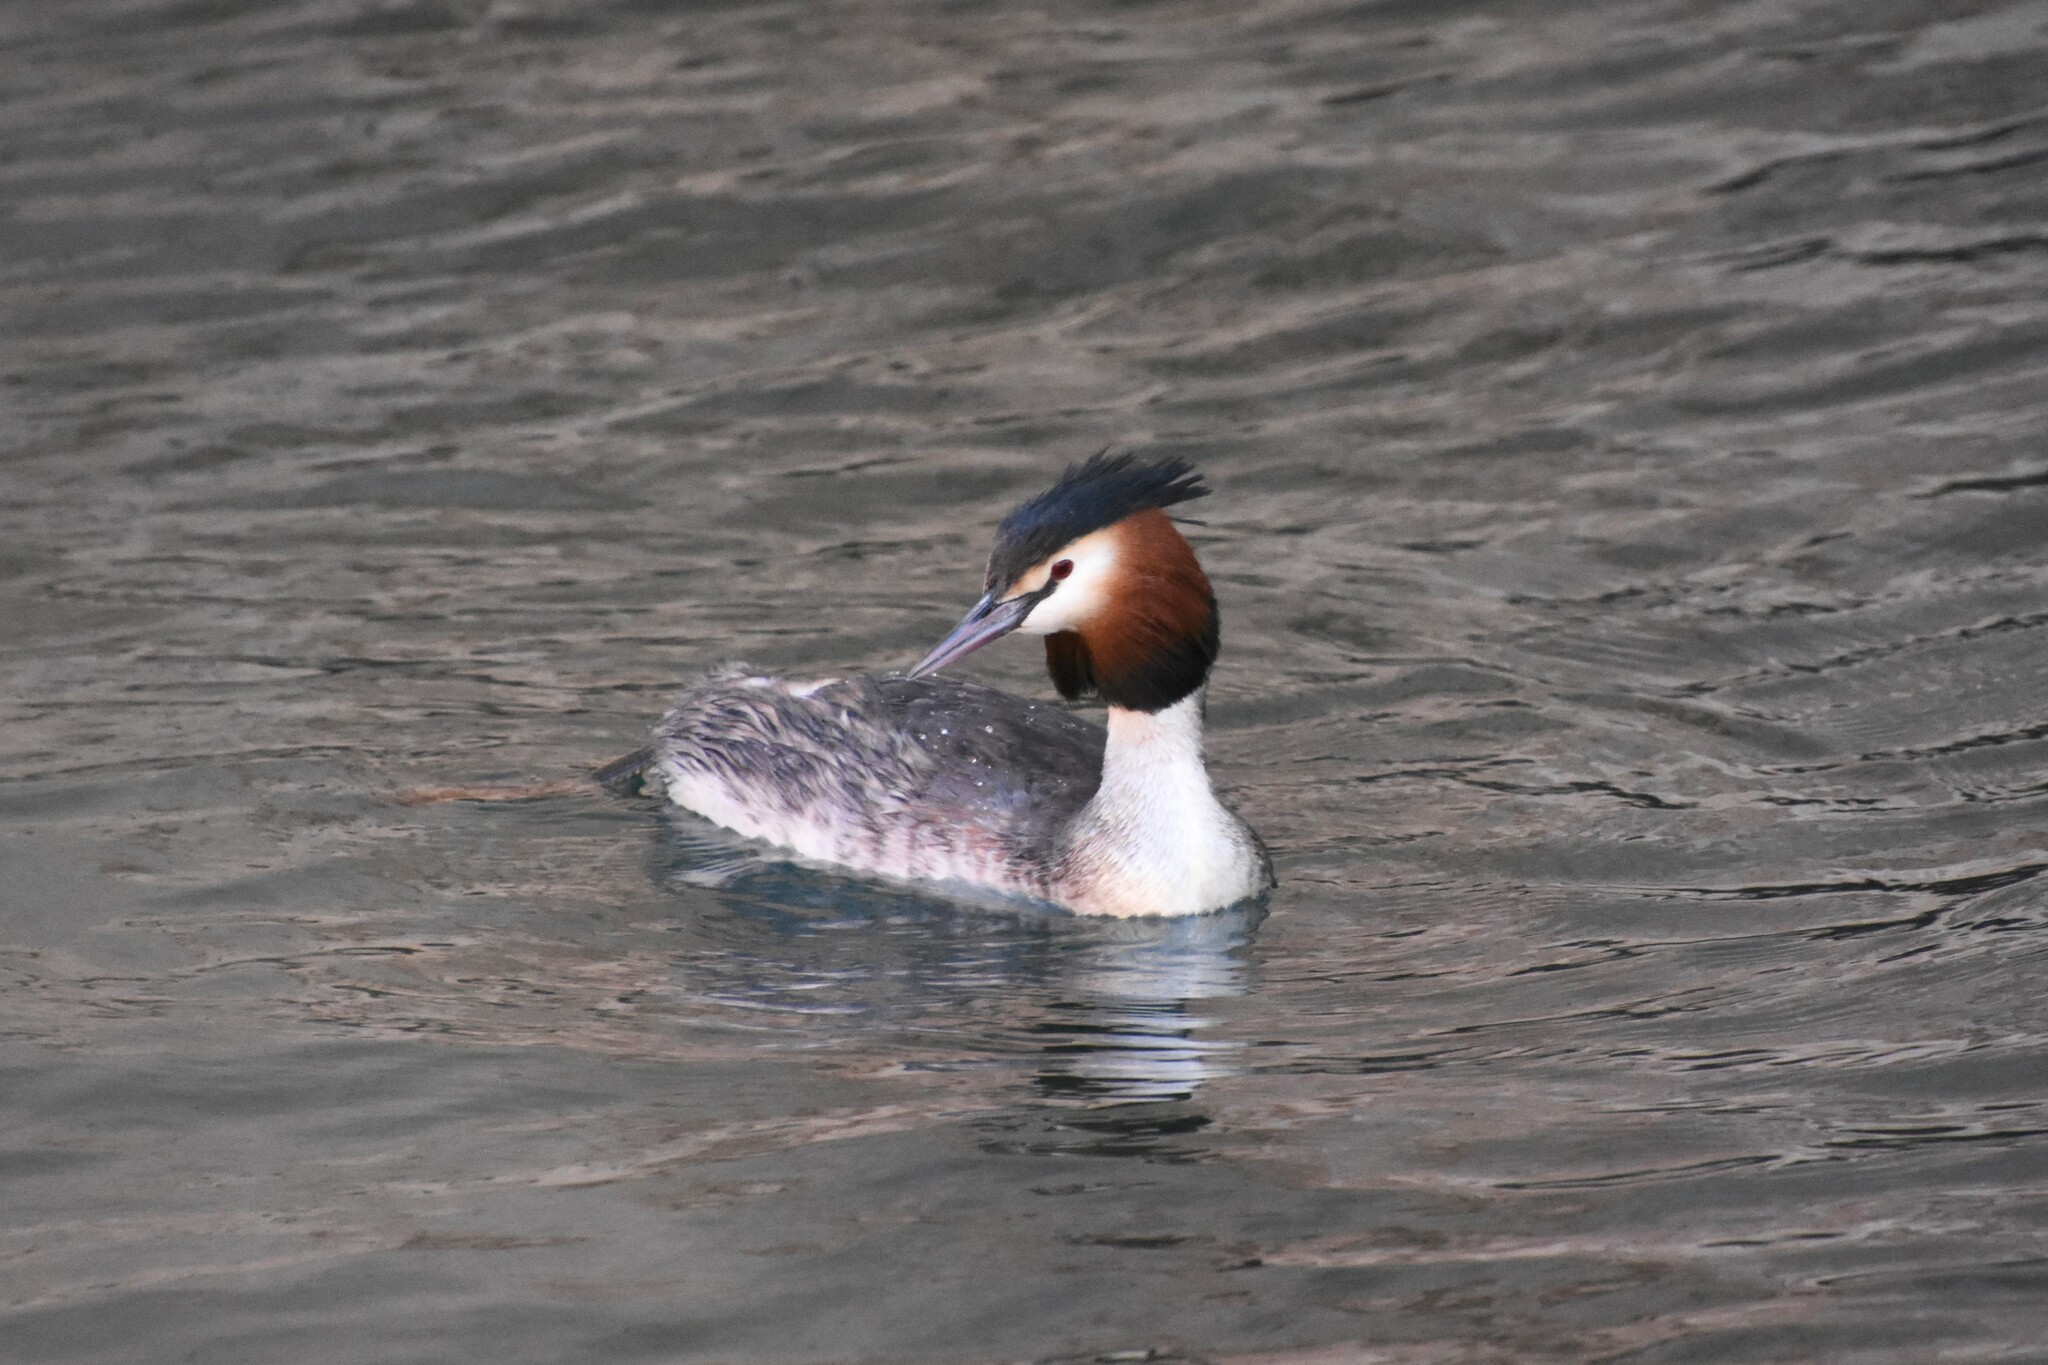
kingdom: Animalia
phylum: Chordata
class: Aves
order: Podicipediformes
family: Podicipedidae
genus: Podiceps
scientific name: Podiceps cristatus
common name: Great crested grebe
